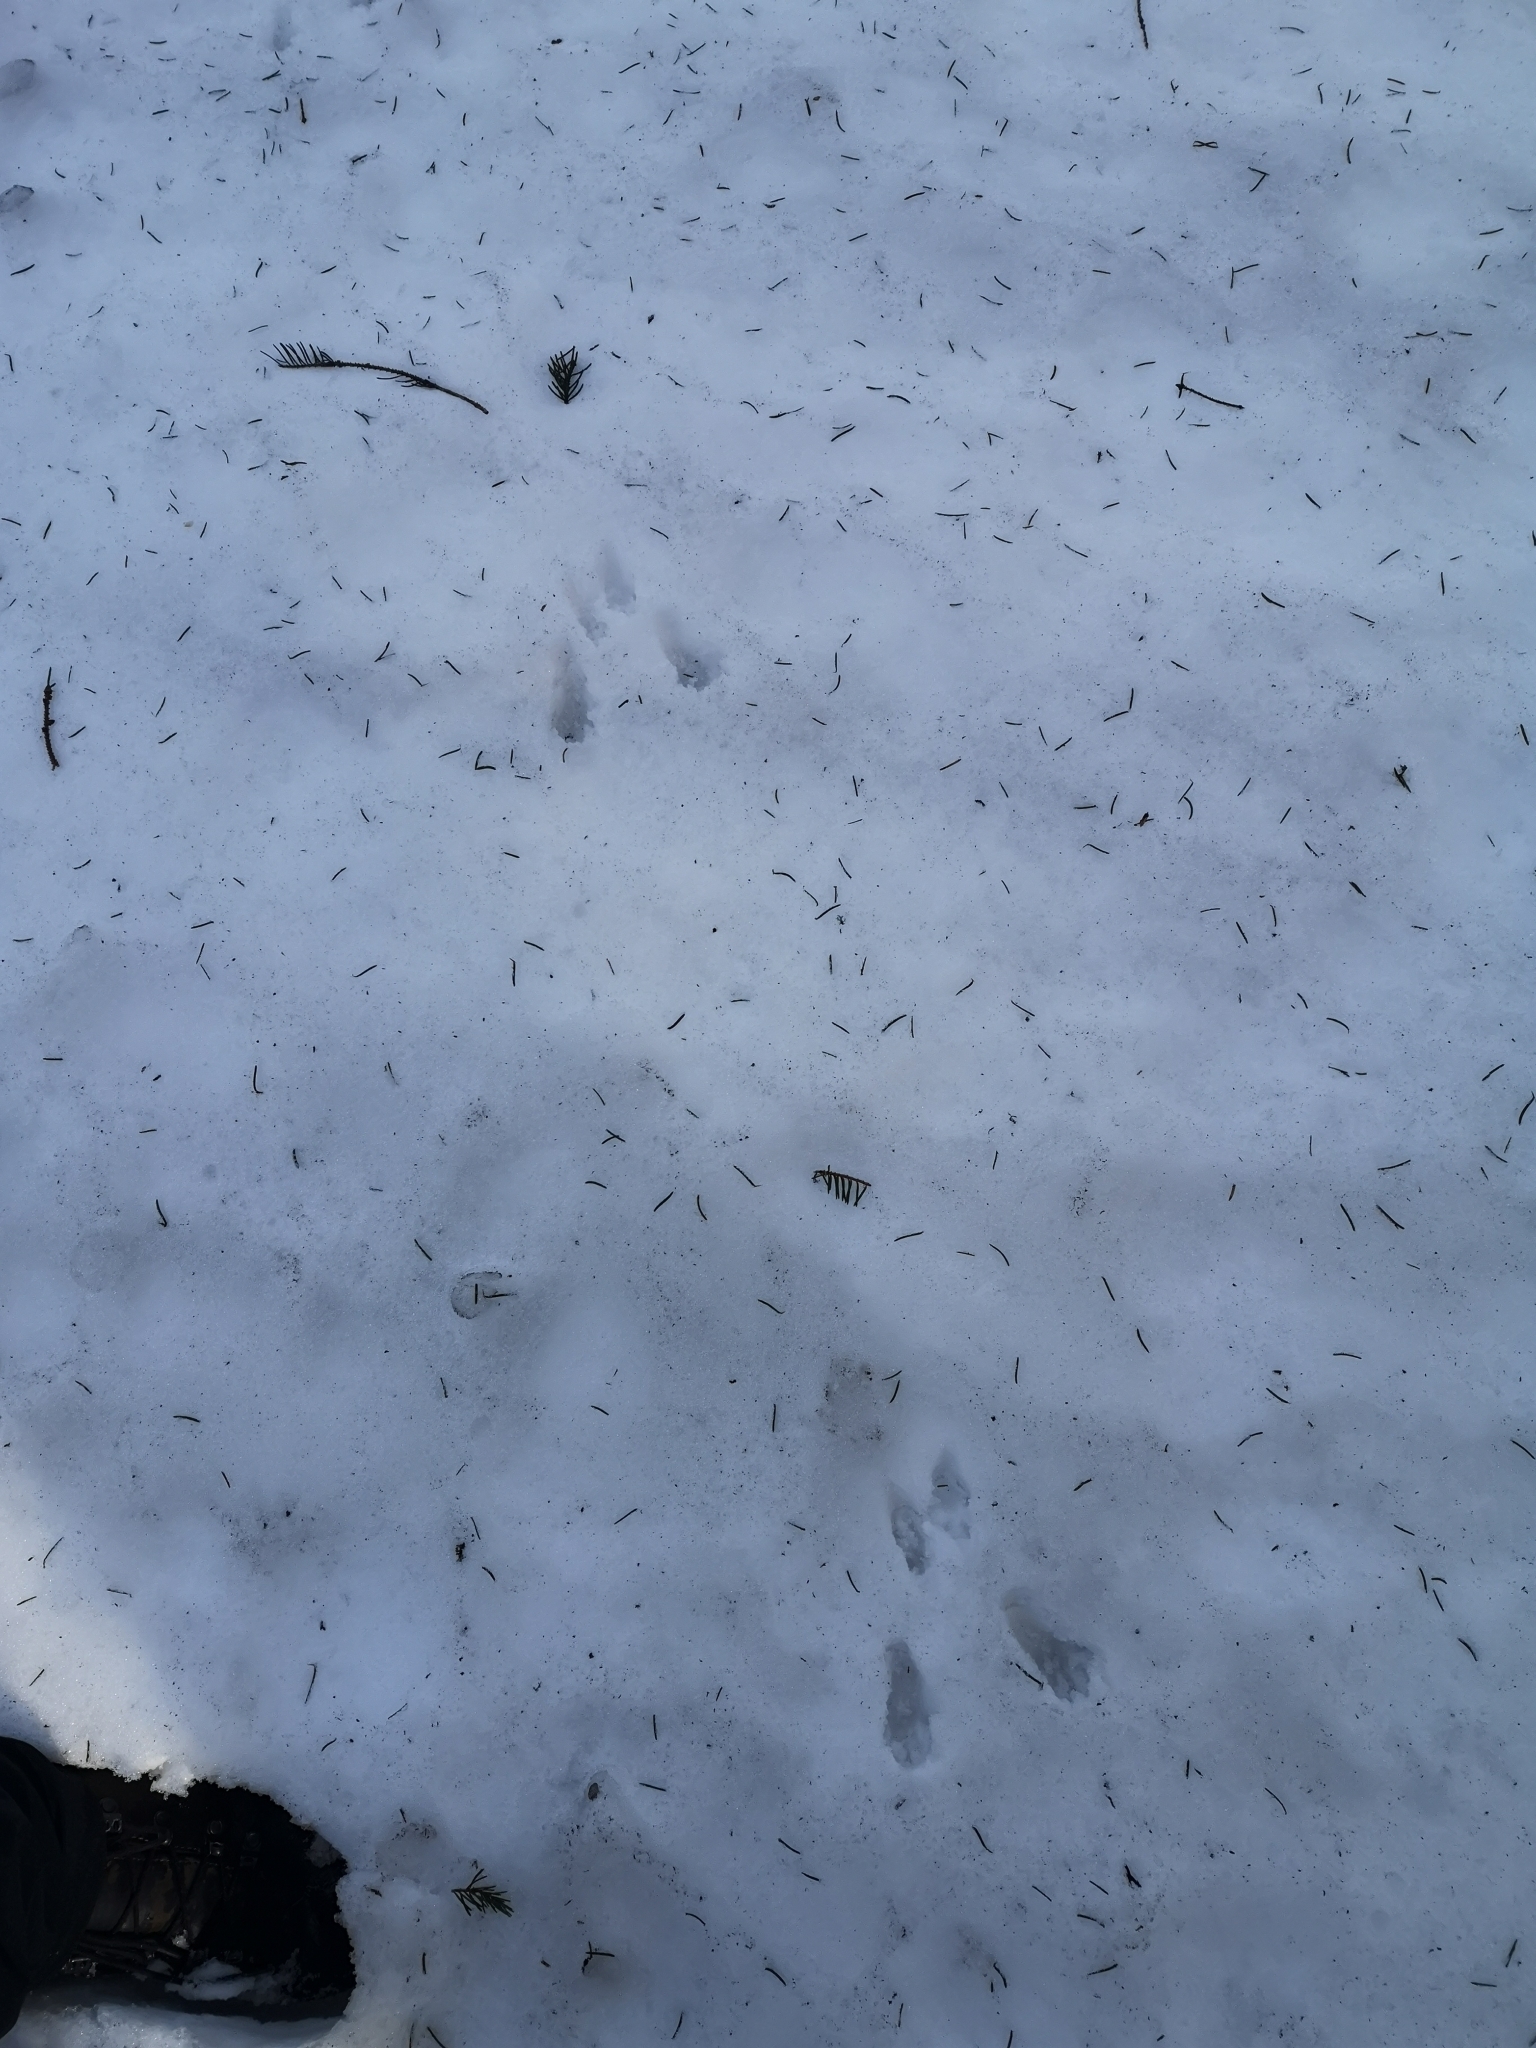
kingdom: Animalia
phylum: Chordata
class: Mammalia
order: Rodentia
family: Sciuridae
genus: Sciurus
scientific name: Sciurus vulgaris
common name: Eurasian red squirrel
